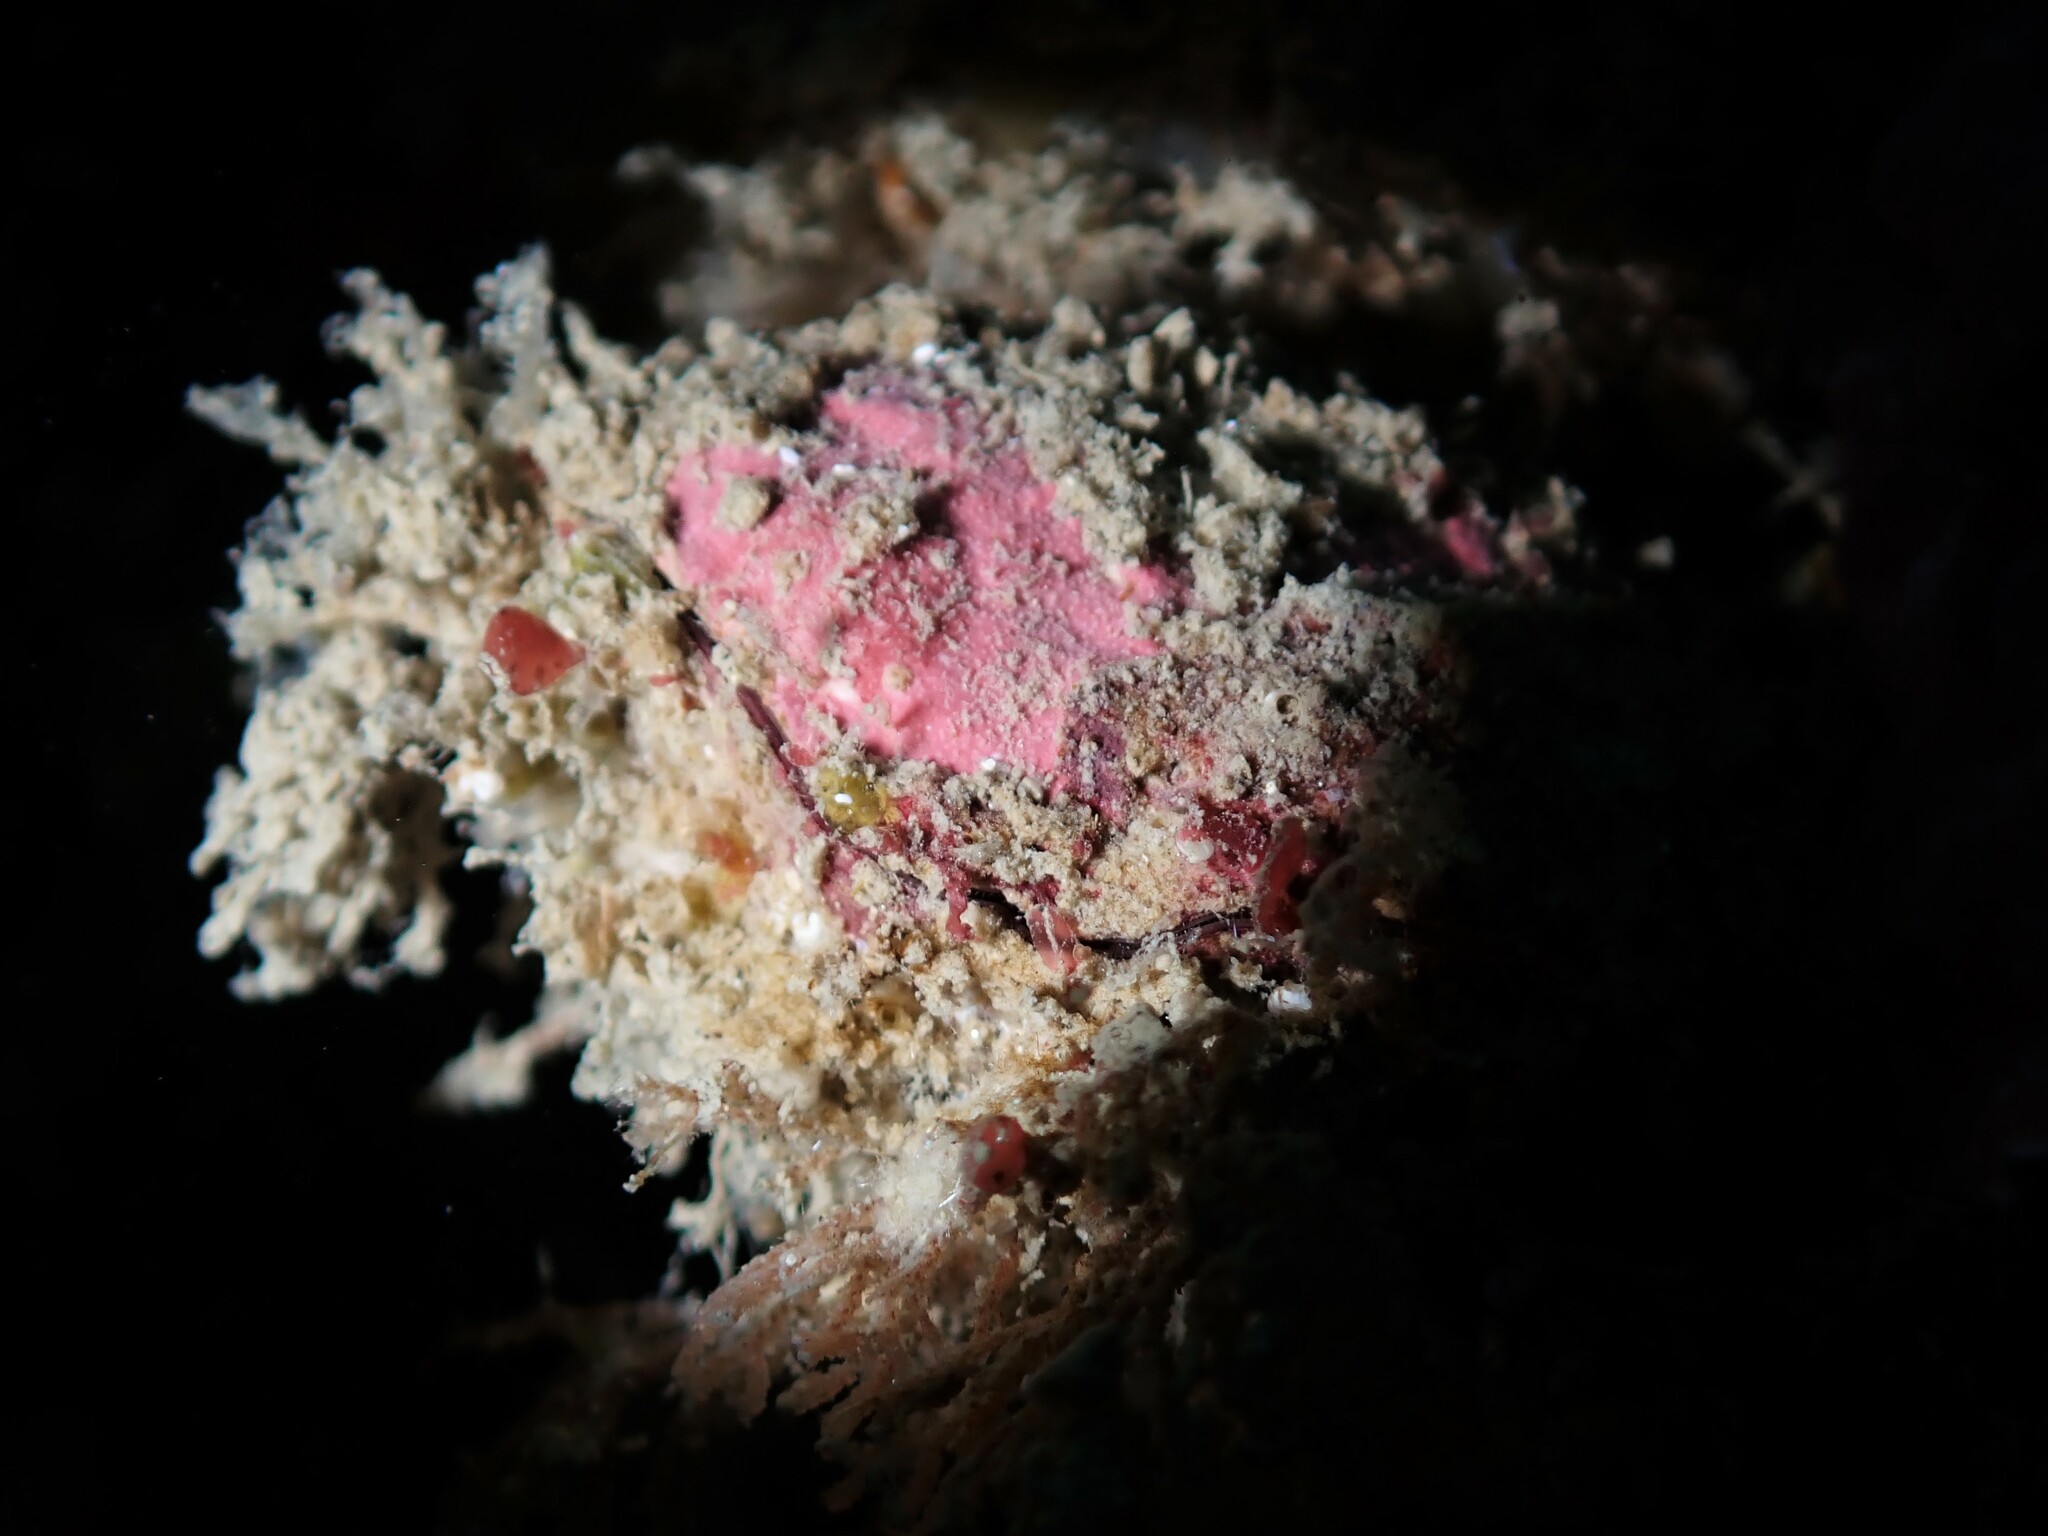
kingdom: Animalia
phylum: Brachiopoda
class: Rhynchonellata
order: Terebratulida
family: Terebratellidae
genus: Calloria
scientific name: Calloria inconspicua
